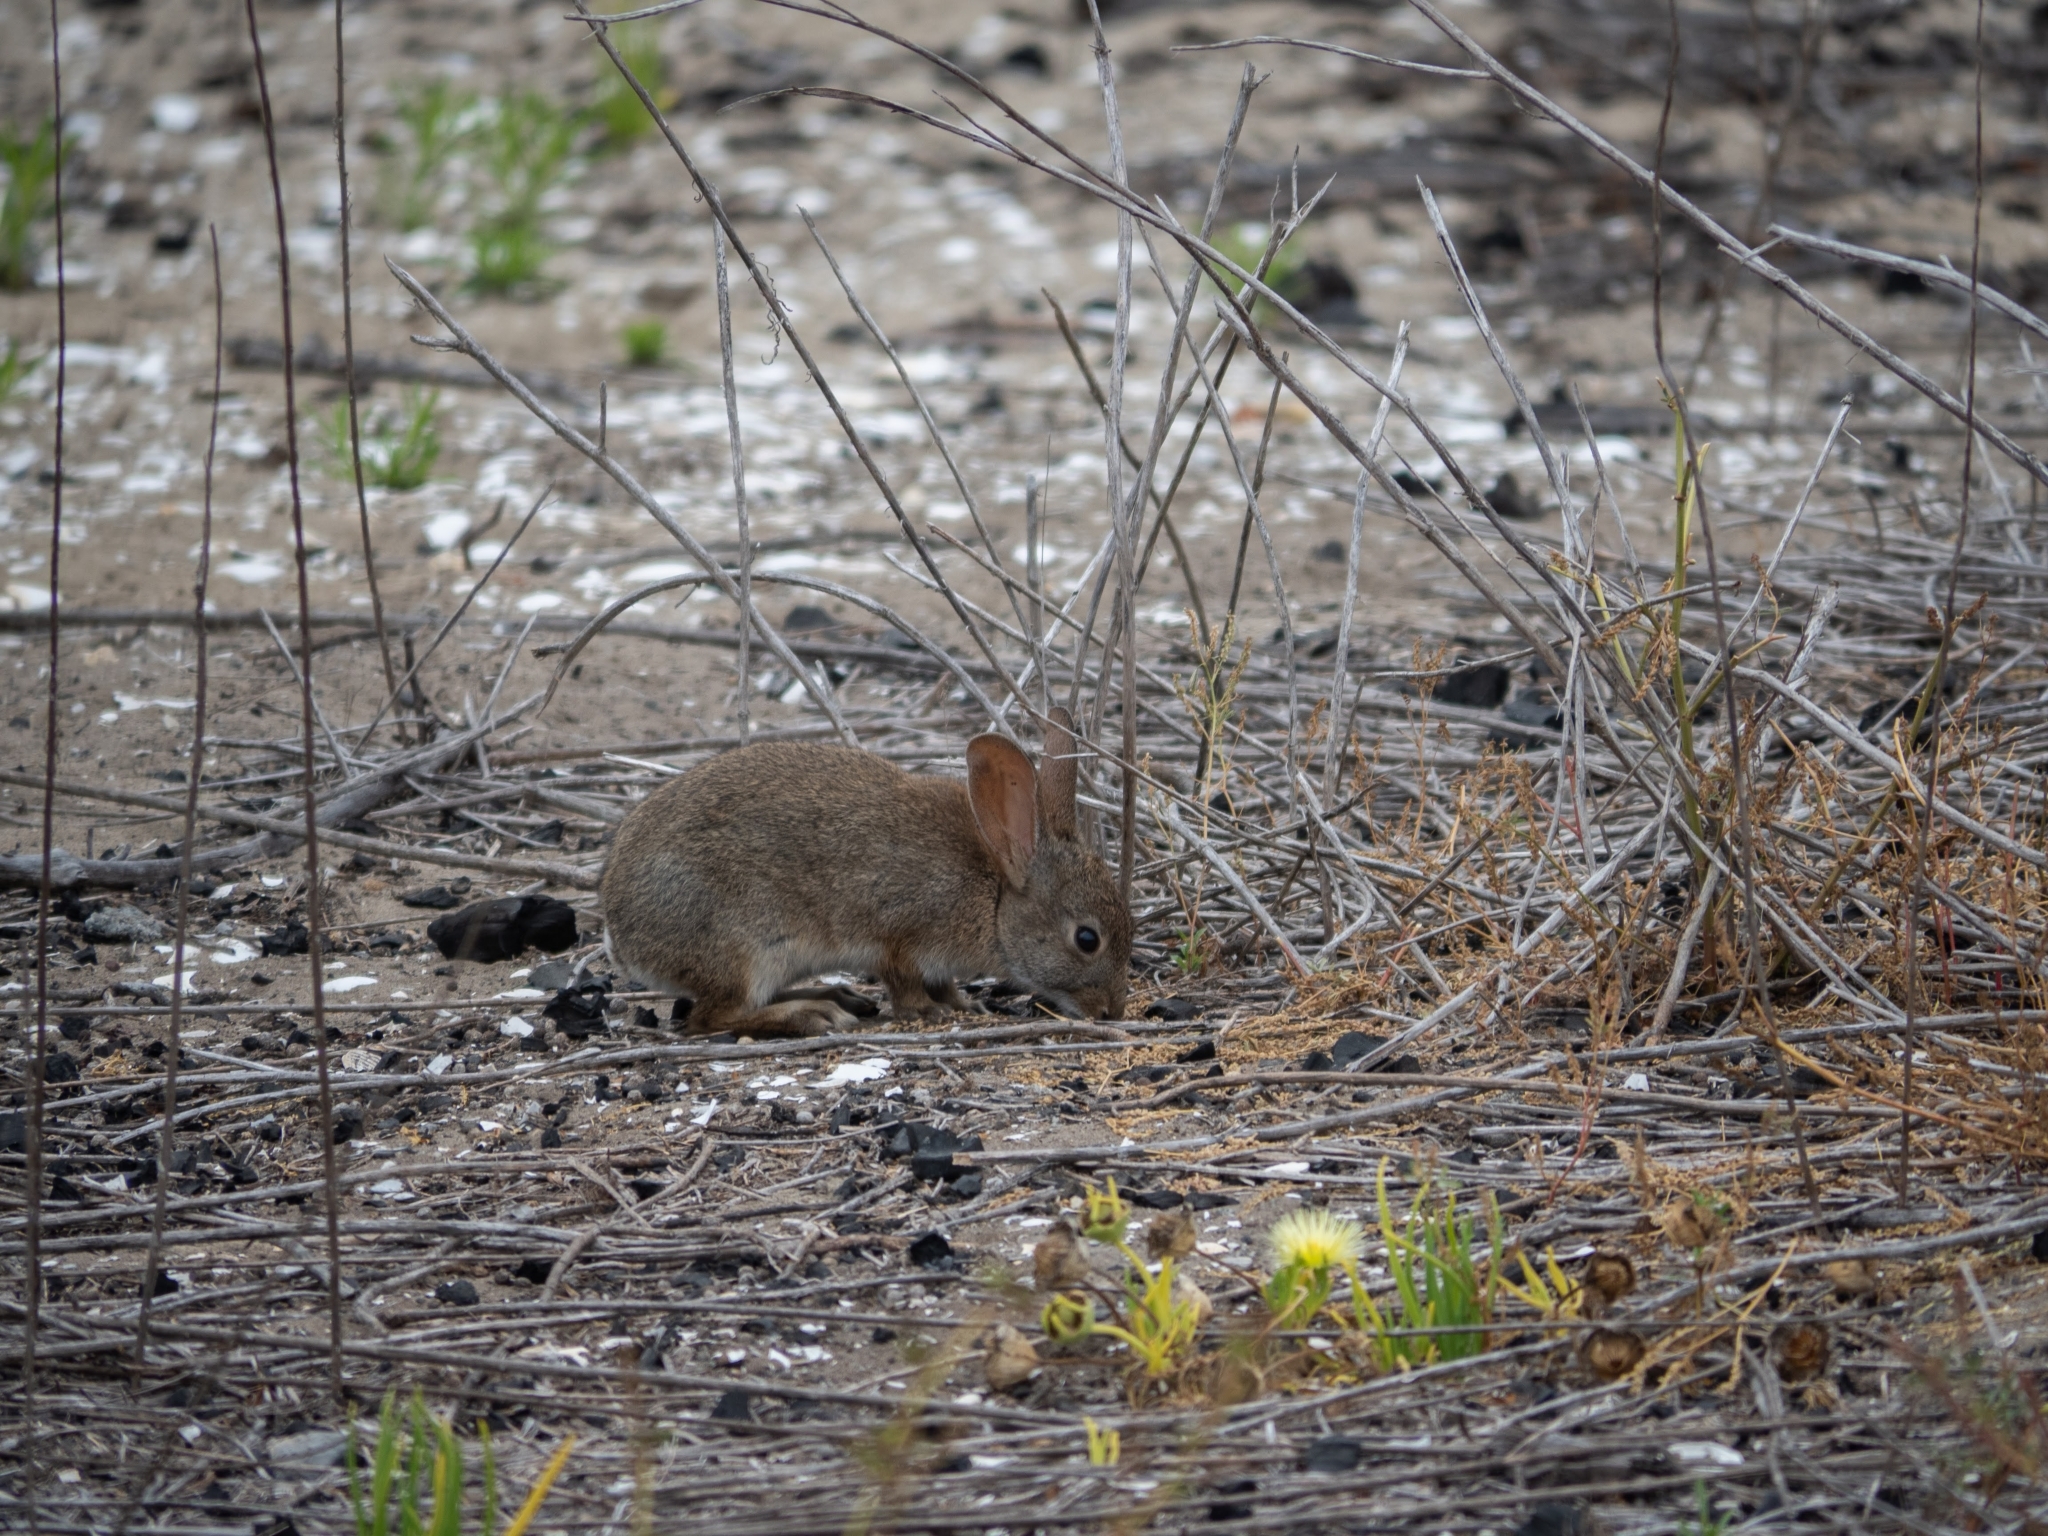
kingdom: Animalia
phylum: Chordata
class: Mammalia
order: Lagomorpha
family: Leporidae
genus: Sylvilagus
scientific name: Sylvilagus bachmani
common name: Brush rabbit
